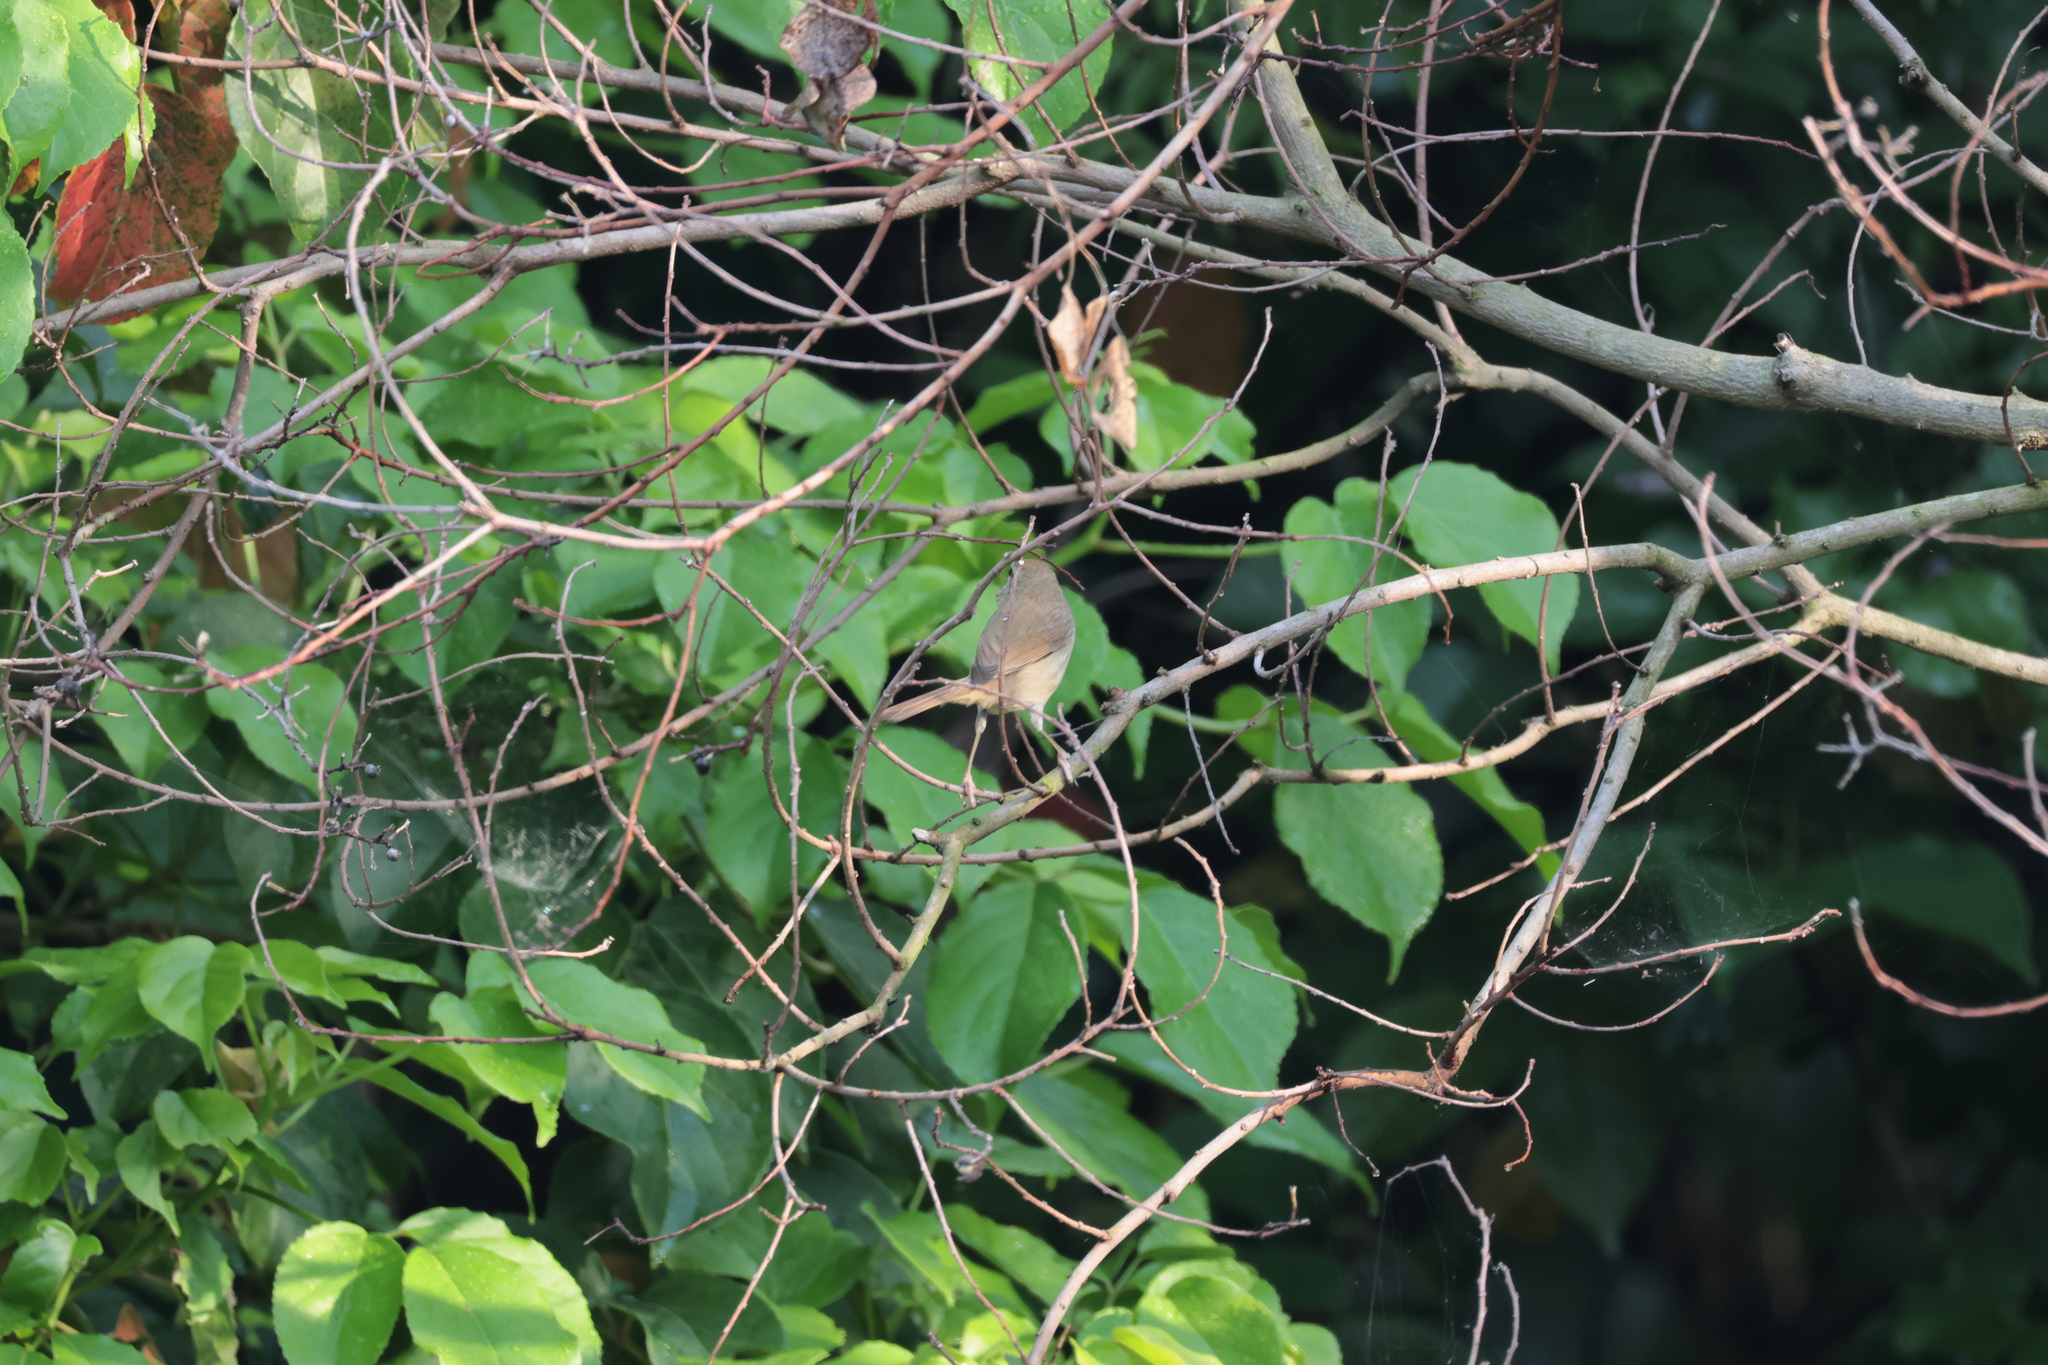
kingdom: Animalia
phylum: Chordata
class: Aves
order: Passeriformes
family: Cettiidae
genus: Horornis
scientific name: Horornis diphone
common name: Japanese bush warbler
